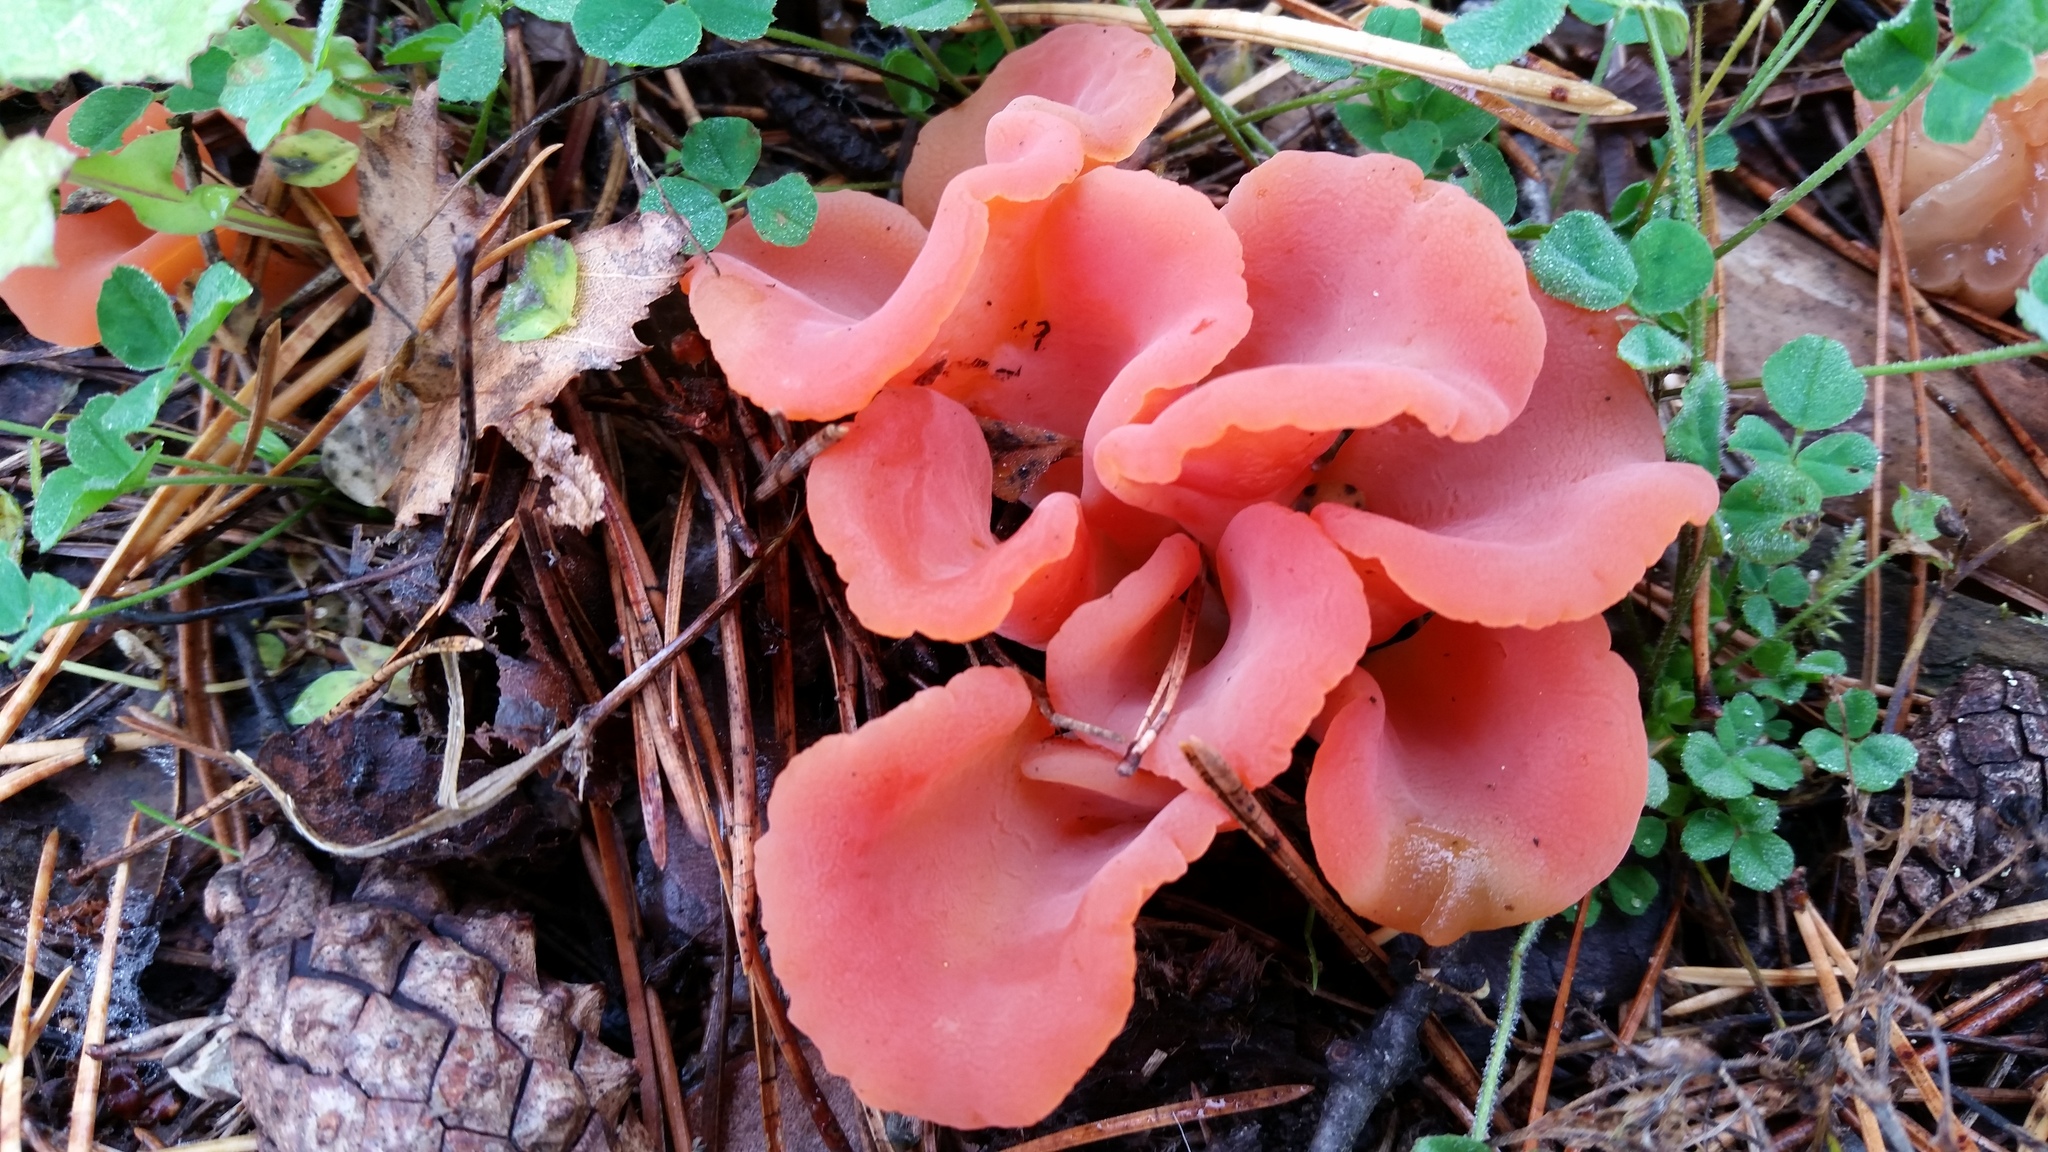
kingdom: Fungi
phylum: Basidiomycota
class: Agaricomycetes
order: Auriculariales
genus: Guepinia
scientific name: Guepinia helvelloides
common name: Salmon salad
